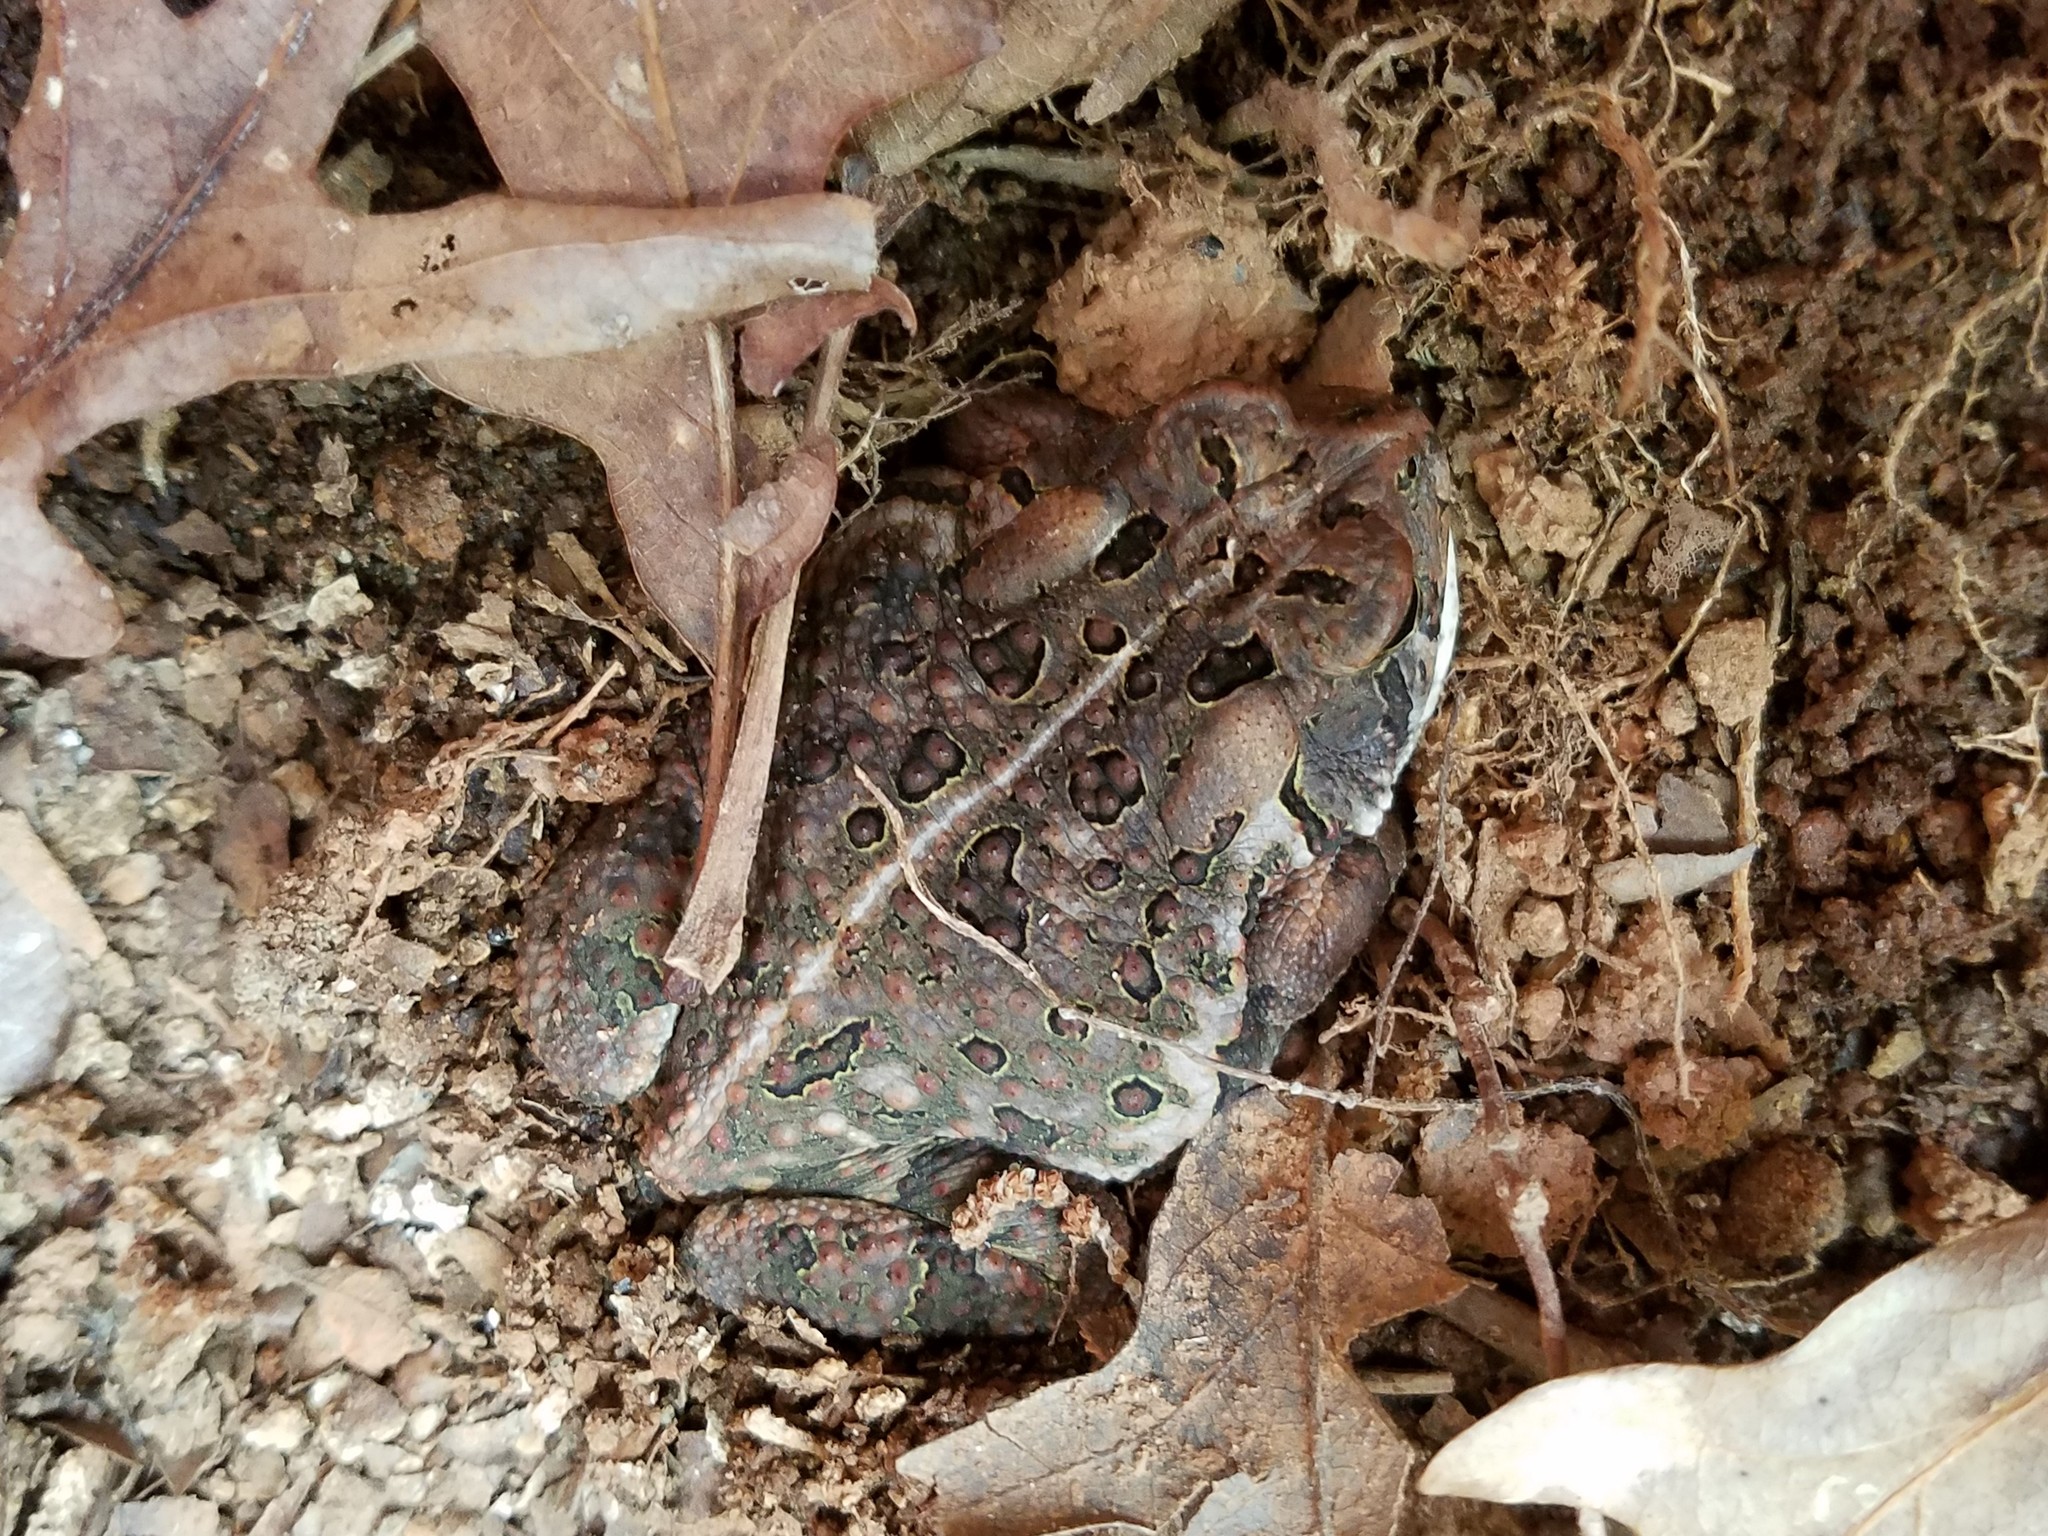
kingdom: Animalia
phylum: Chordata
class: Amphibia
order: Anura
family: Bufonidae
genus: Anaxyrus
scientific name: Anaxyrus fowleri
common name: Fowler's toad
